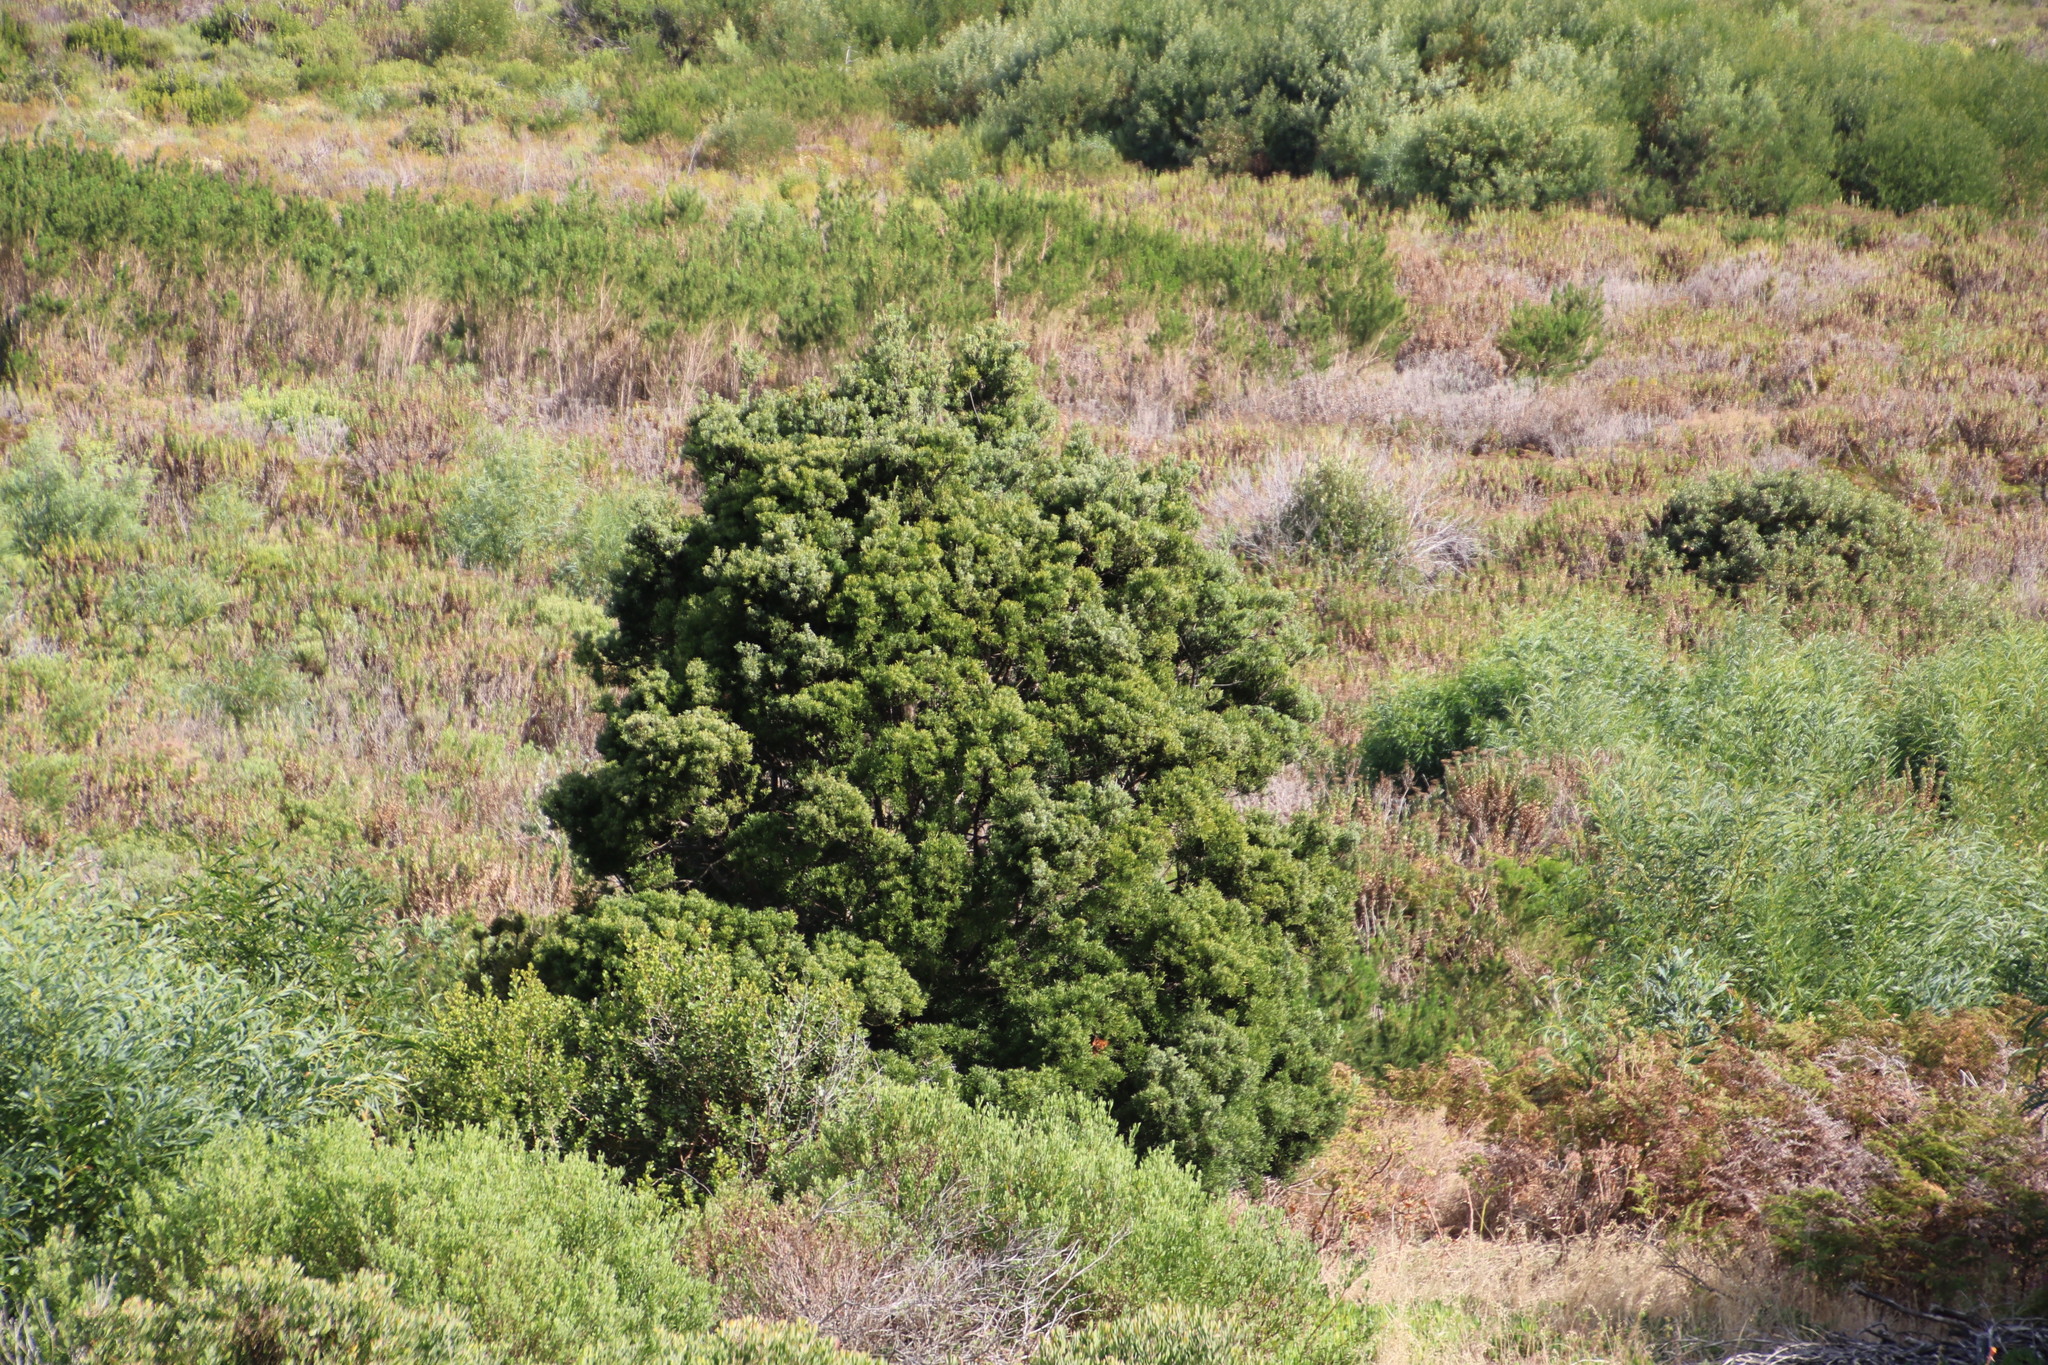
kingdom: Plantae
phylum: Tracheophyta
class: Pinopsida
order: Pinales
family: Podocarpaceae
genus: Afrocarpus
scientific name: Afrocarpus falcatus
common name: Bastard yellowwood
